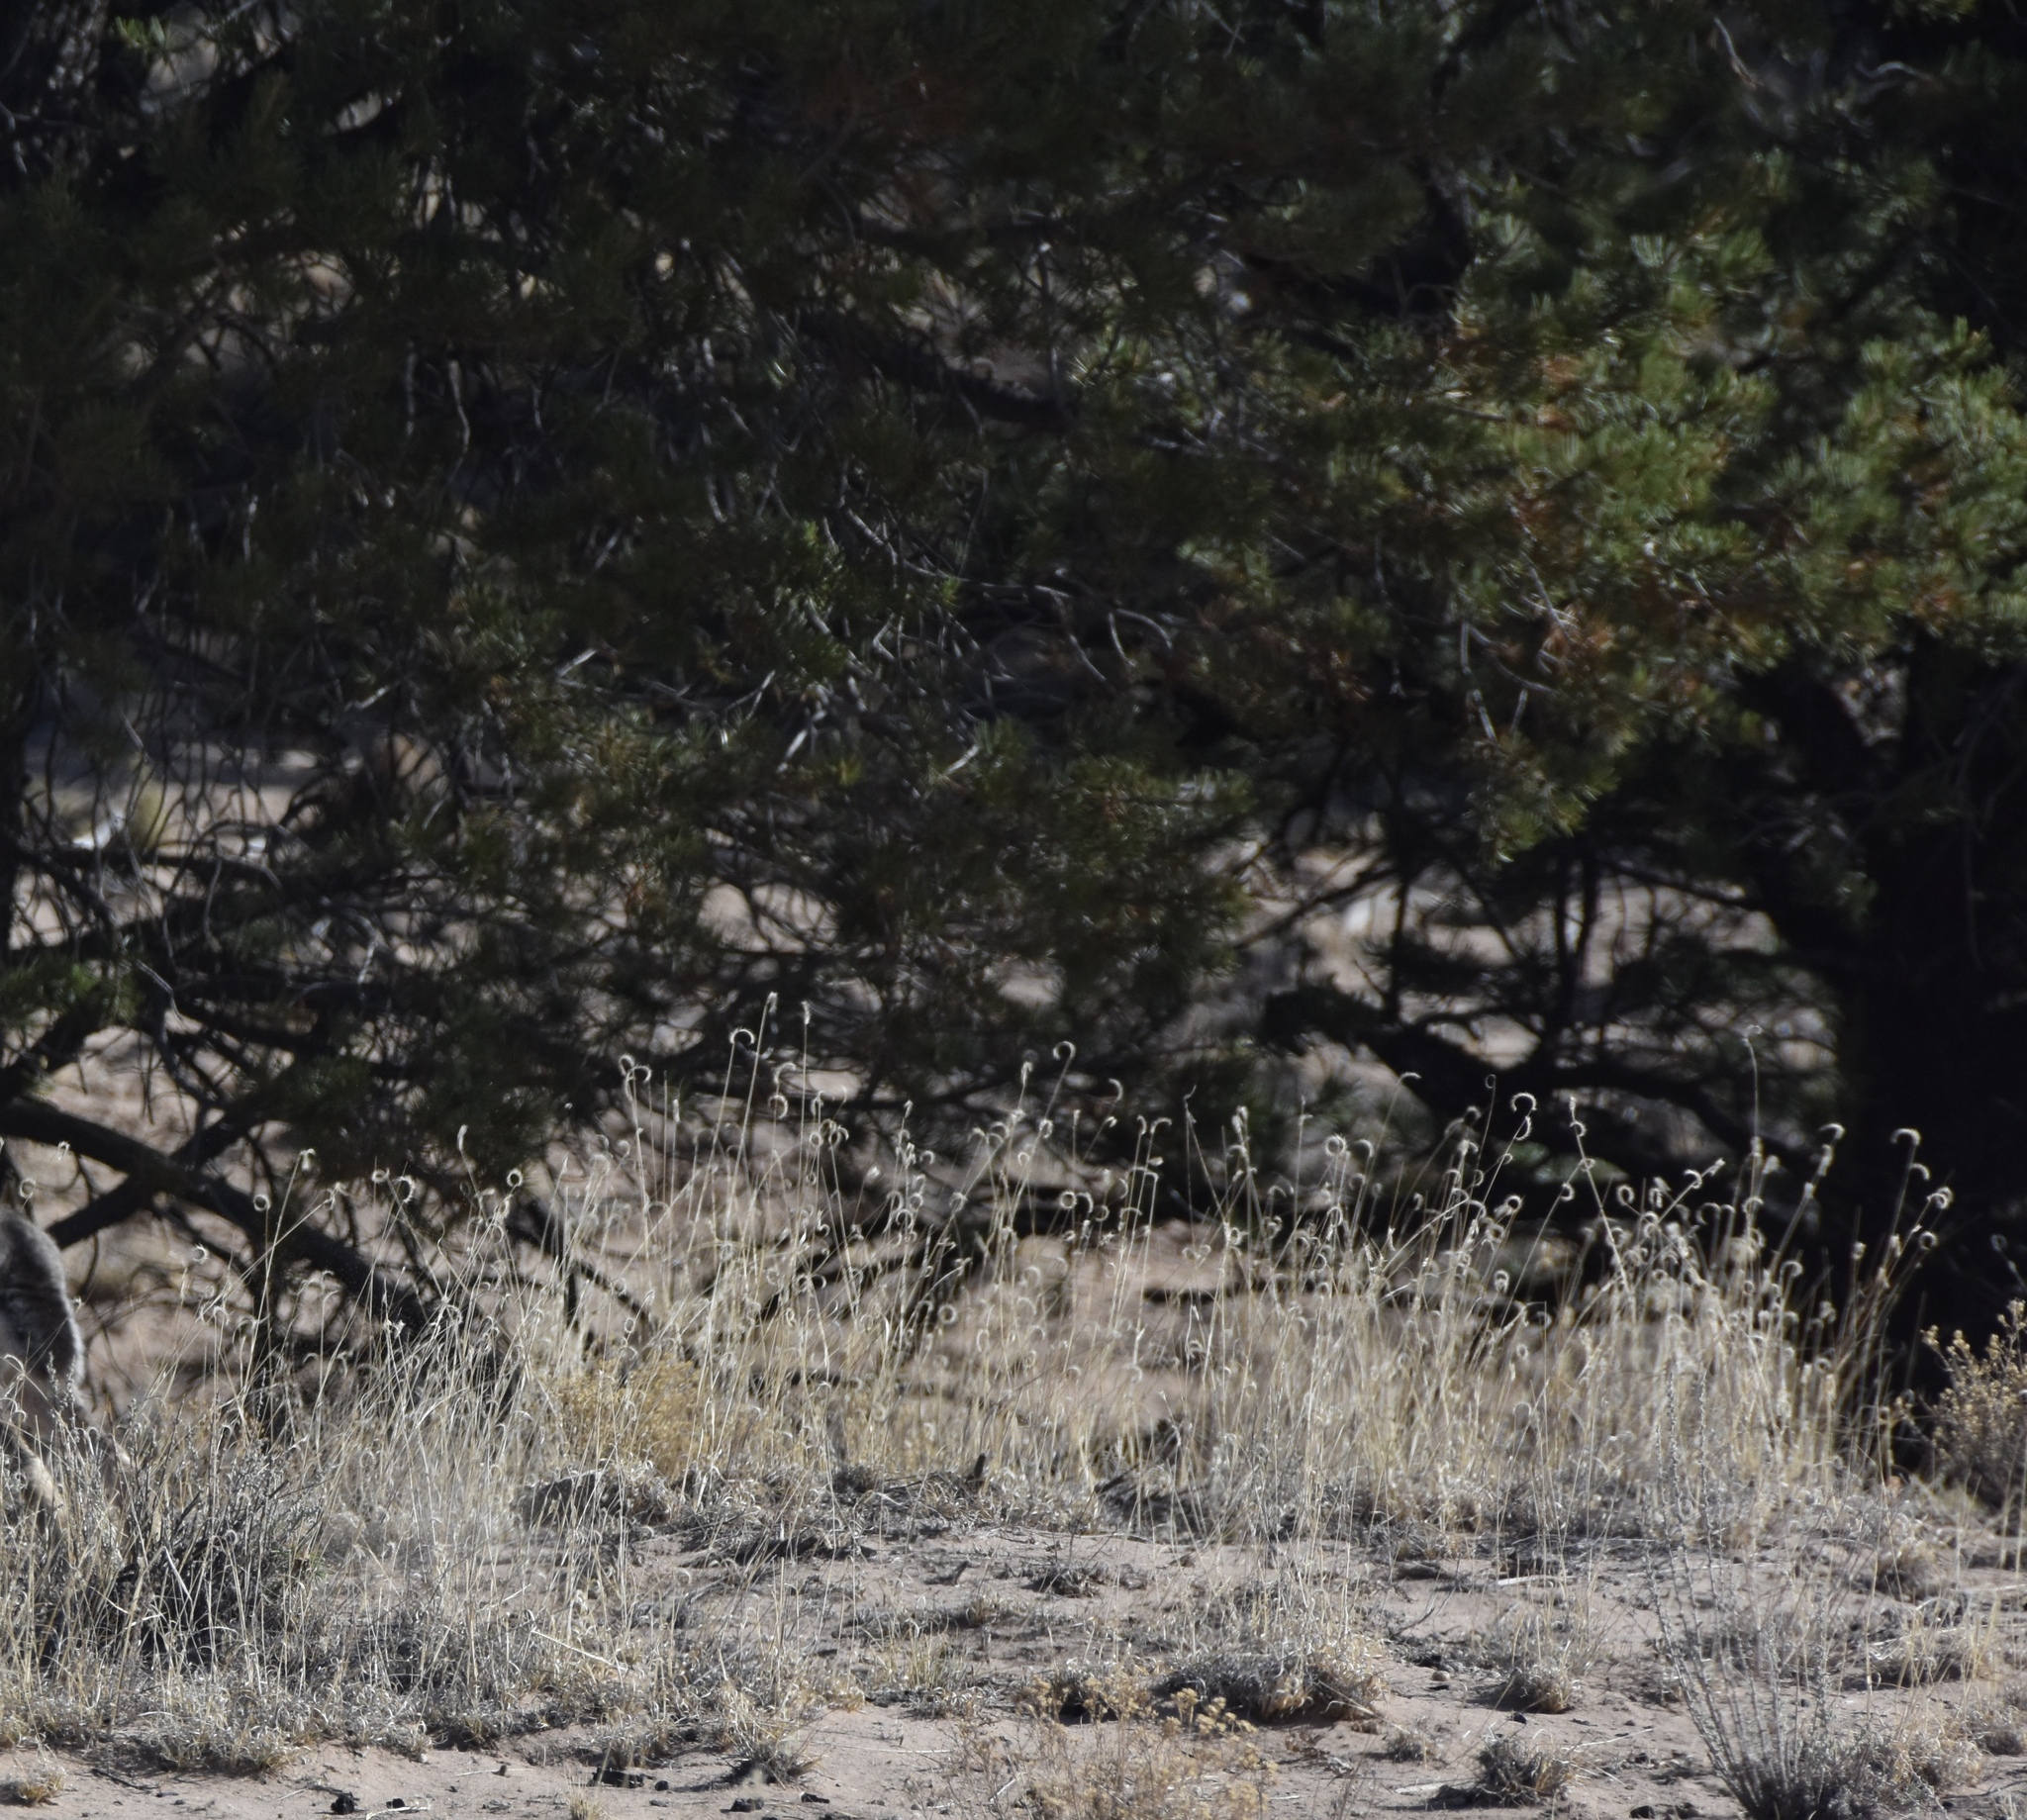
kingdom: Plantae
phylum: Tracheophyta
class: Pinopsida
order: Pinales
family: Pinaceae
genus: Pinus
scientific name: Pinus edulis
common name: Colorado pinyon
